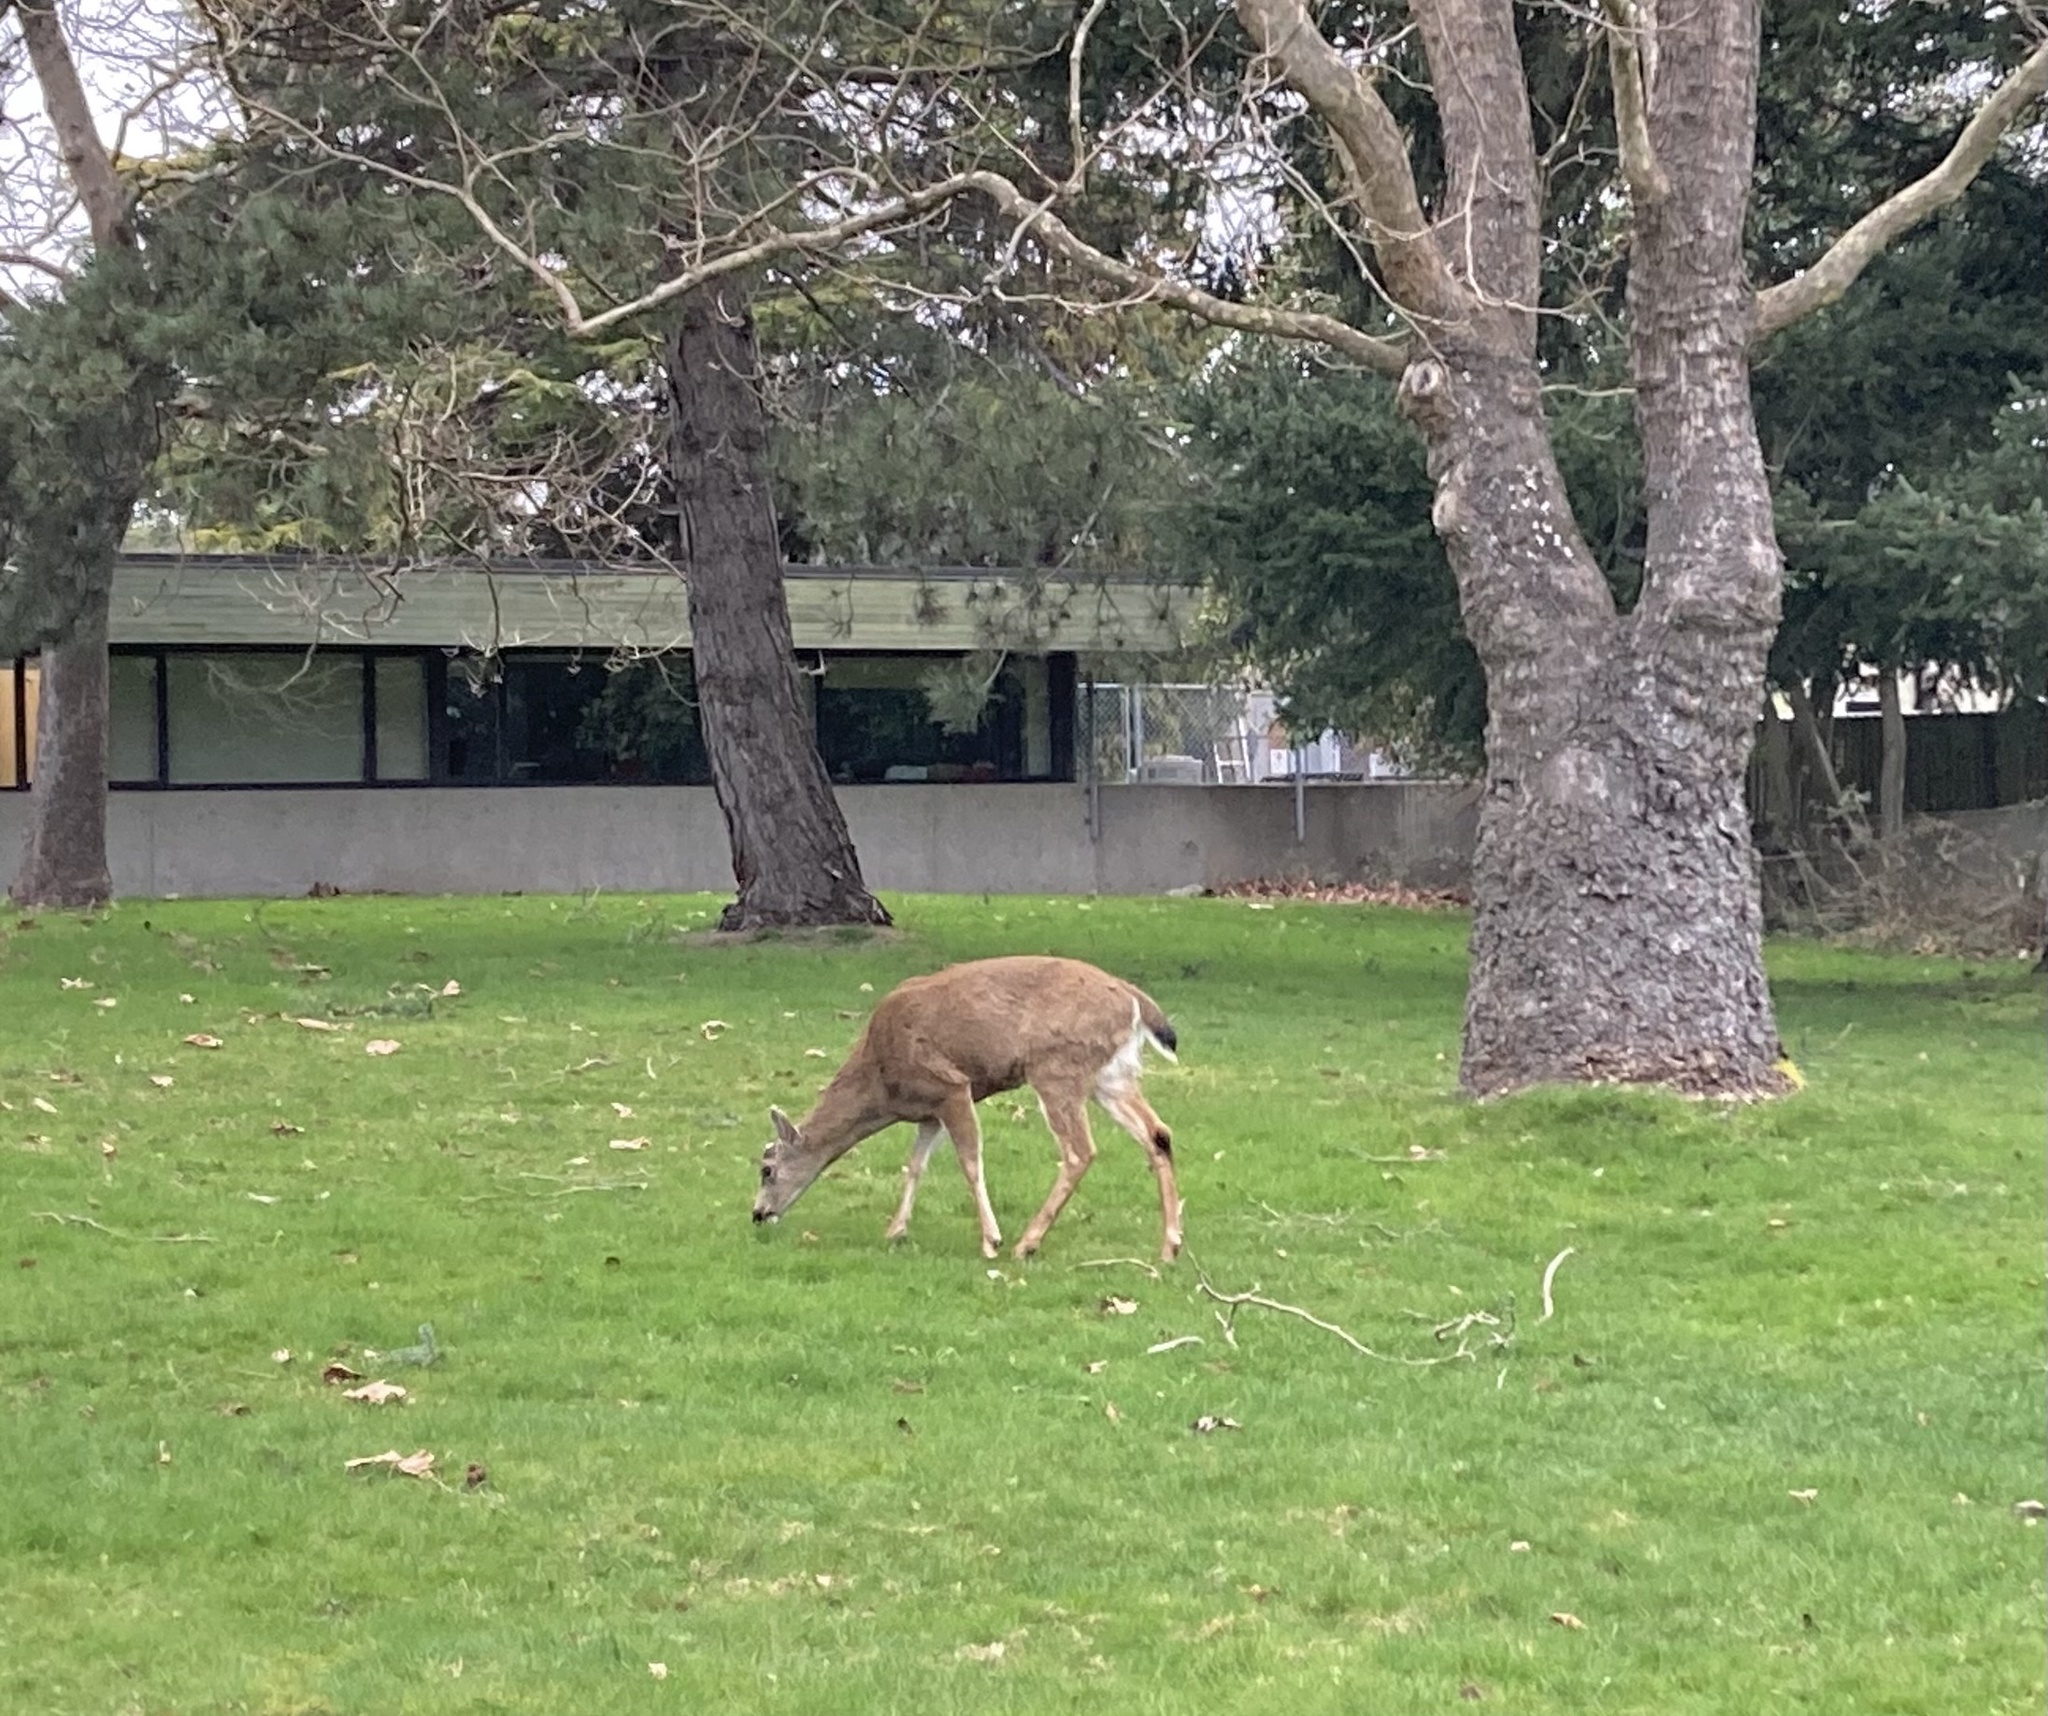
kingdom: Animalia
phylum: Chordata
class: Mammalia
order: Artiodactyla
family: Cervidae
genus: Odocoileus
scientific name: Odocoileus hemionus
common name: Mule deer
